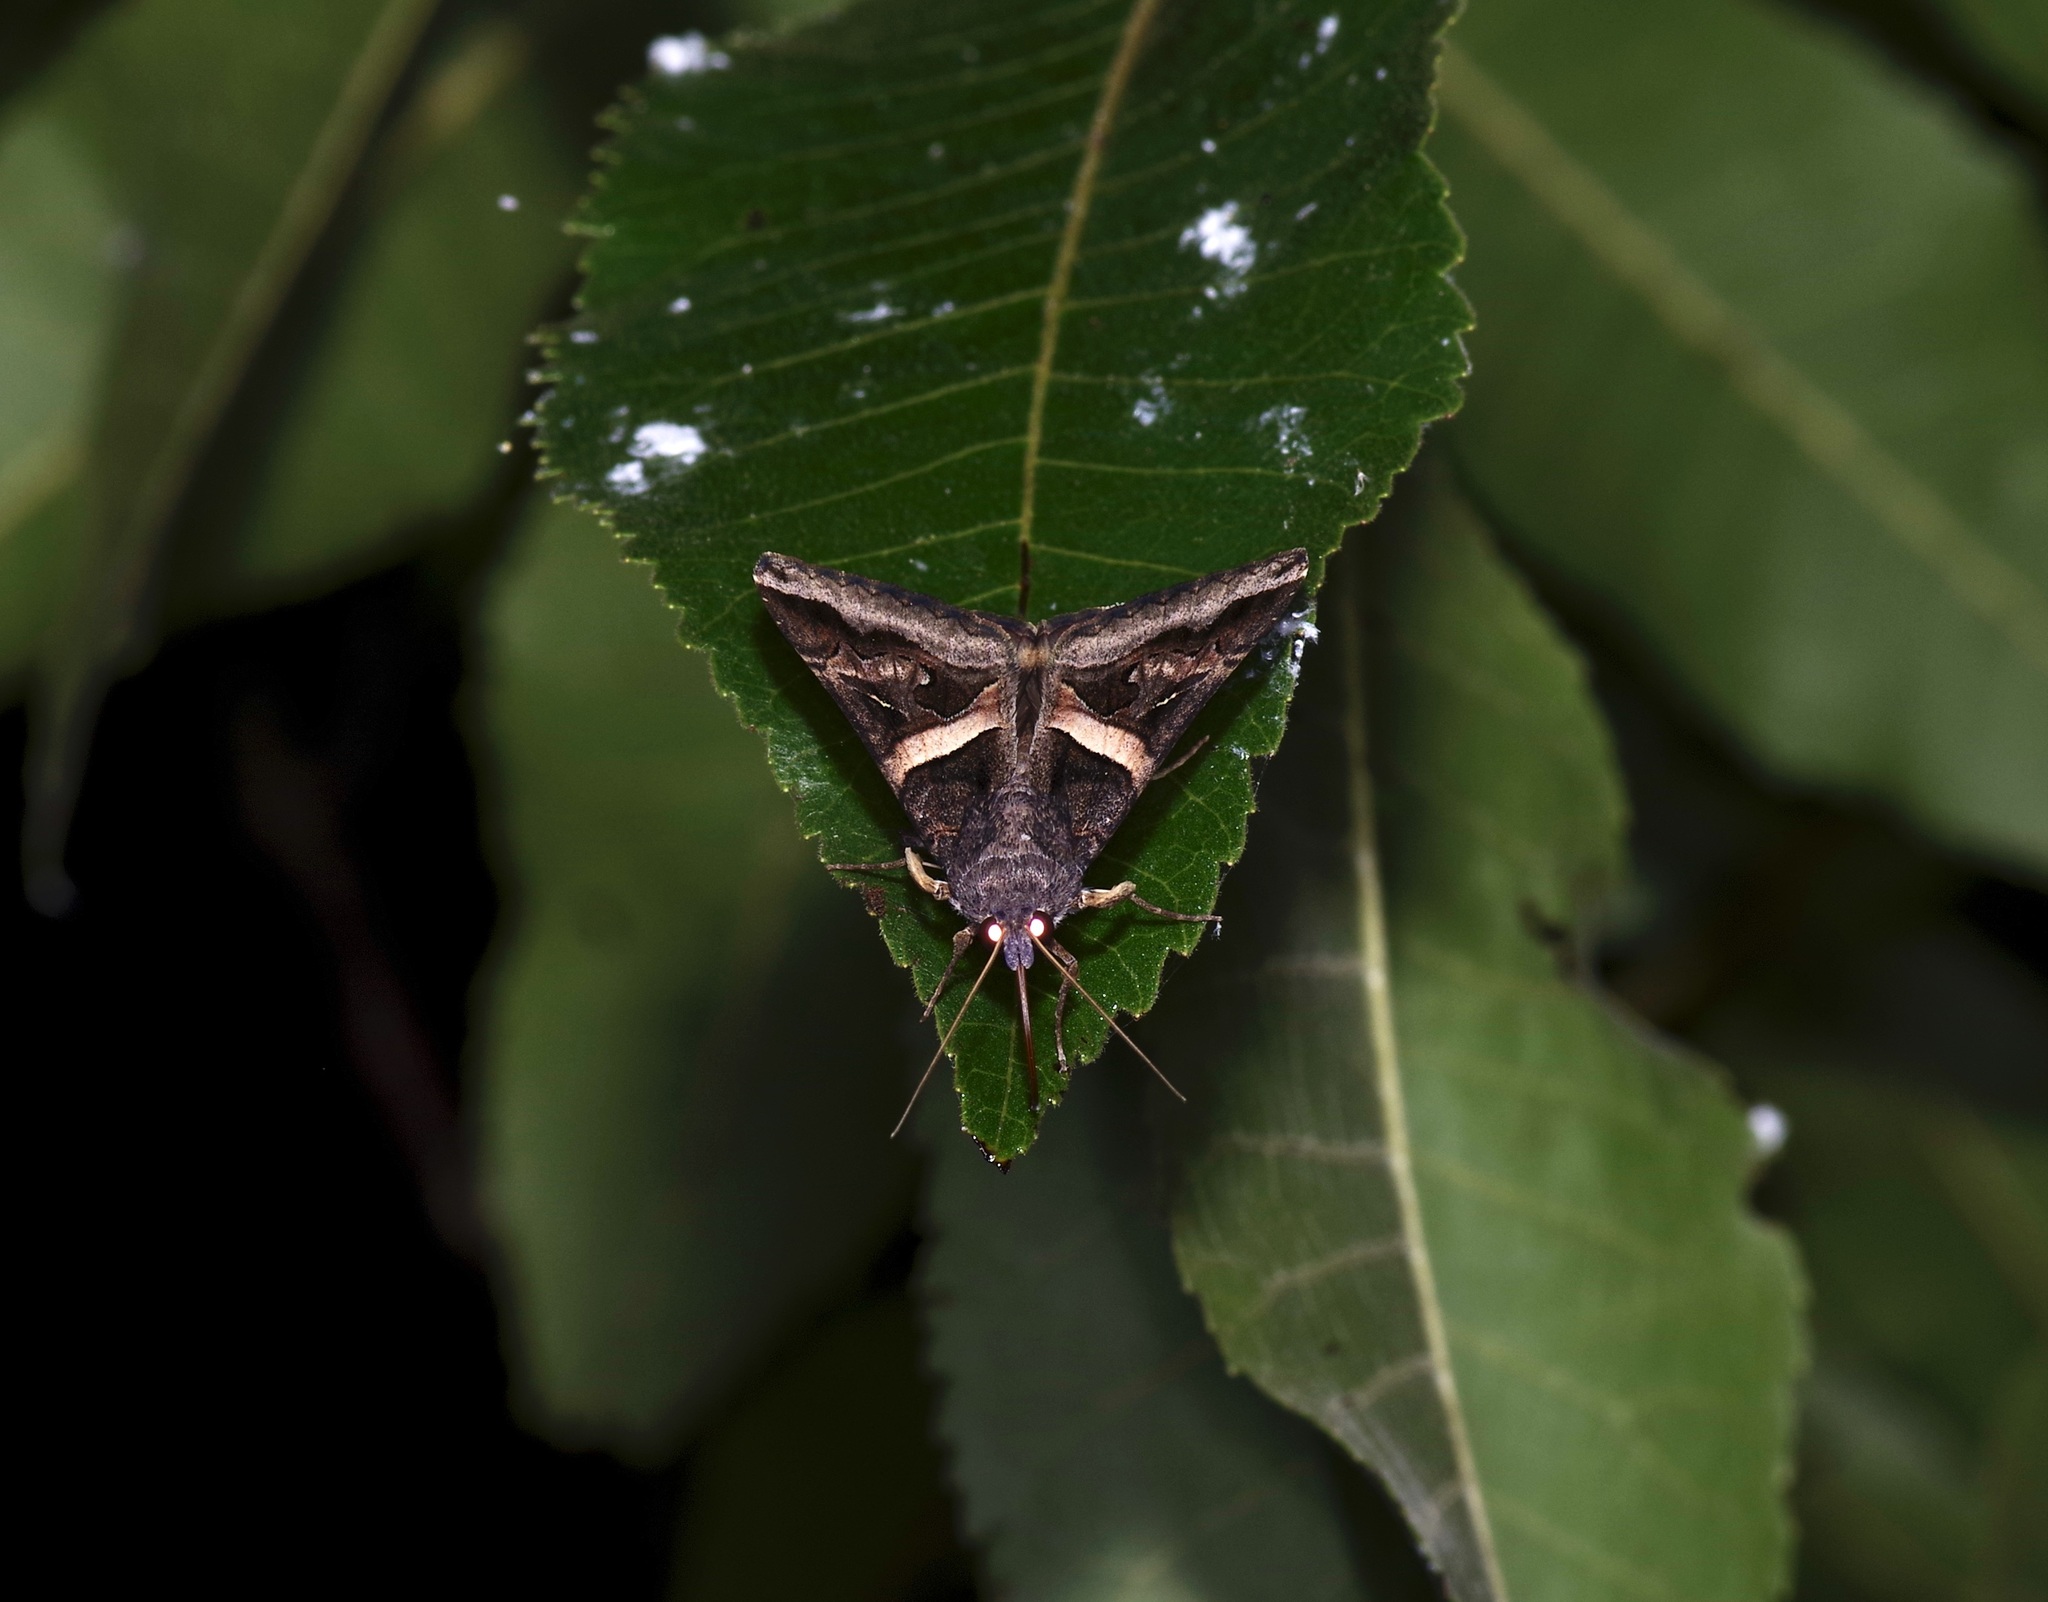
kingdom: Animalia
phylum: Arthropoda
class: Insecta
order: Lepidoptera
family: Erebidae
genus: Melipotis
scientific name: Melipotis indomita
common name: Moth
